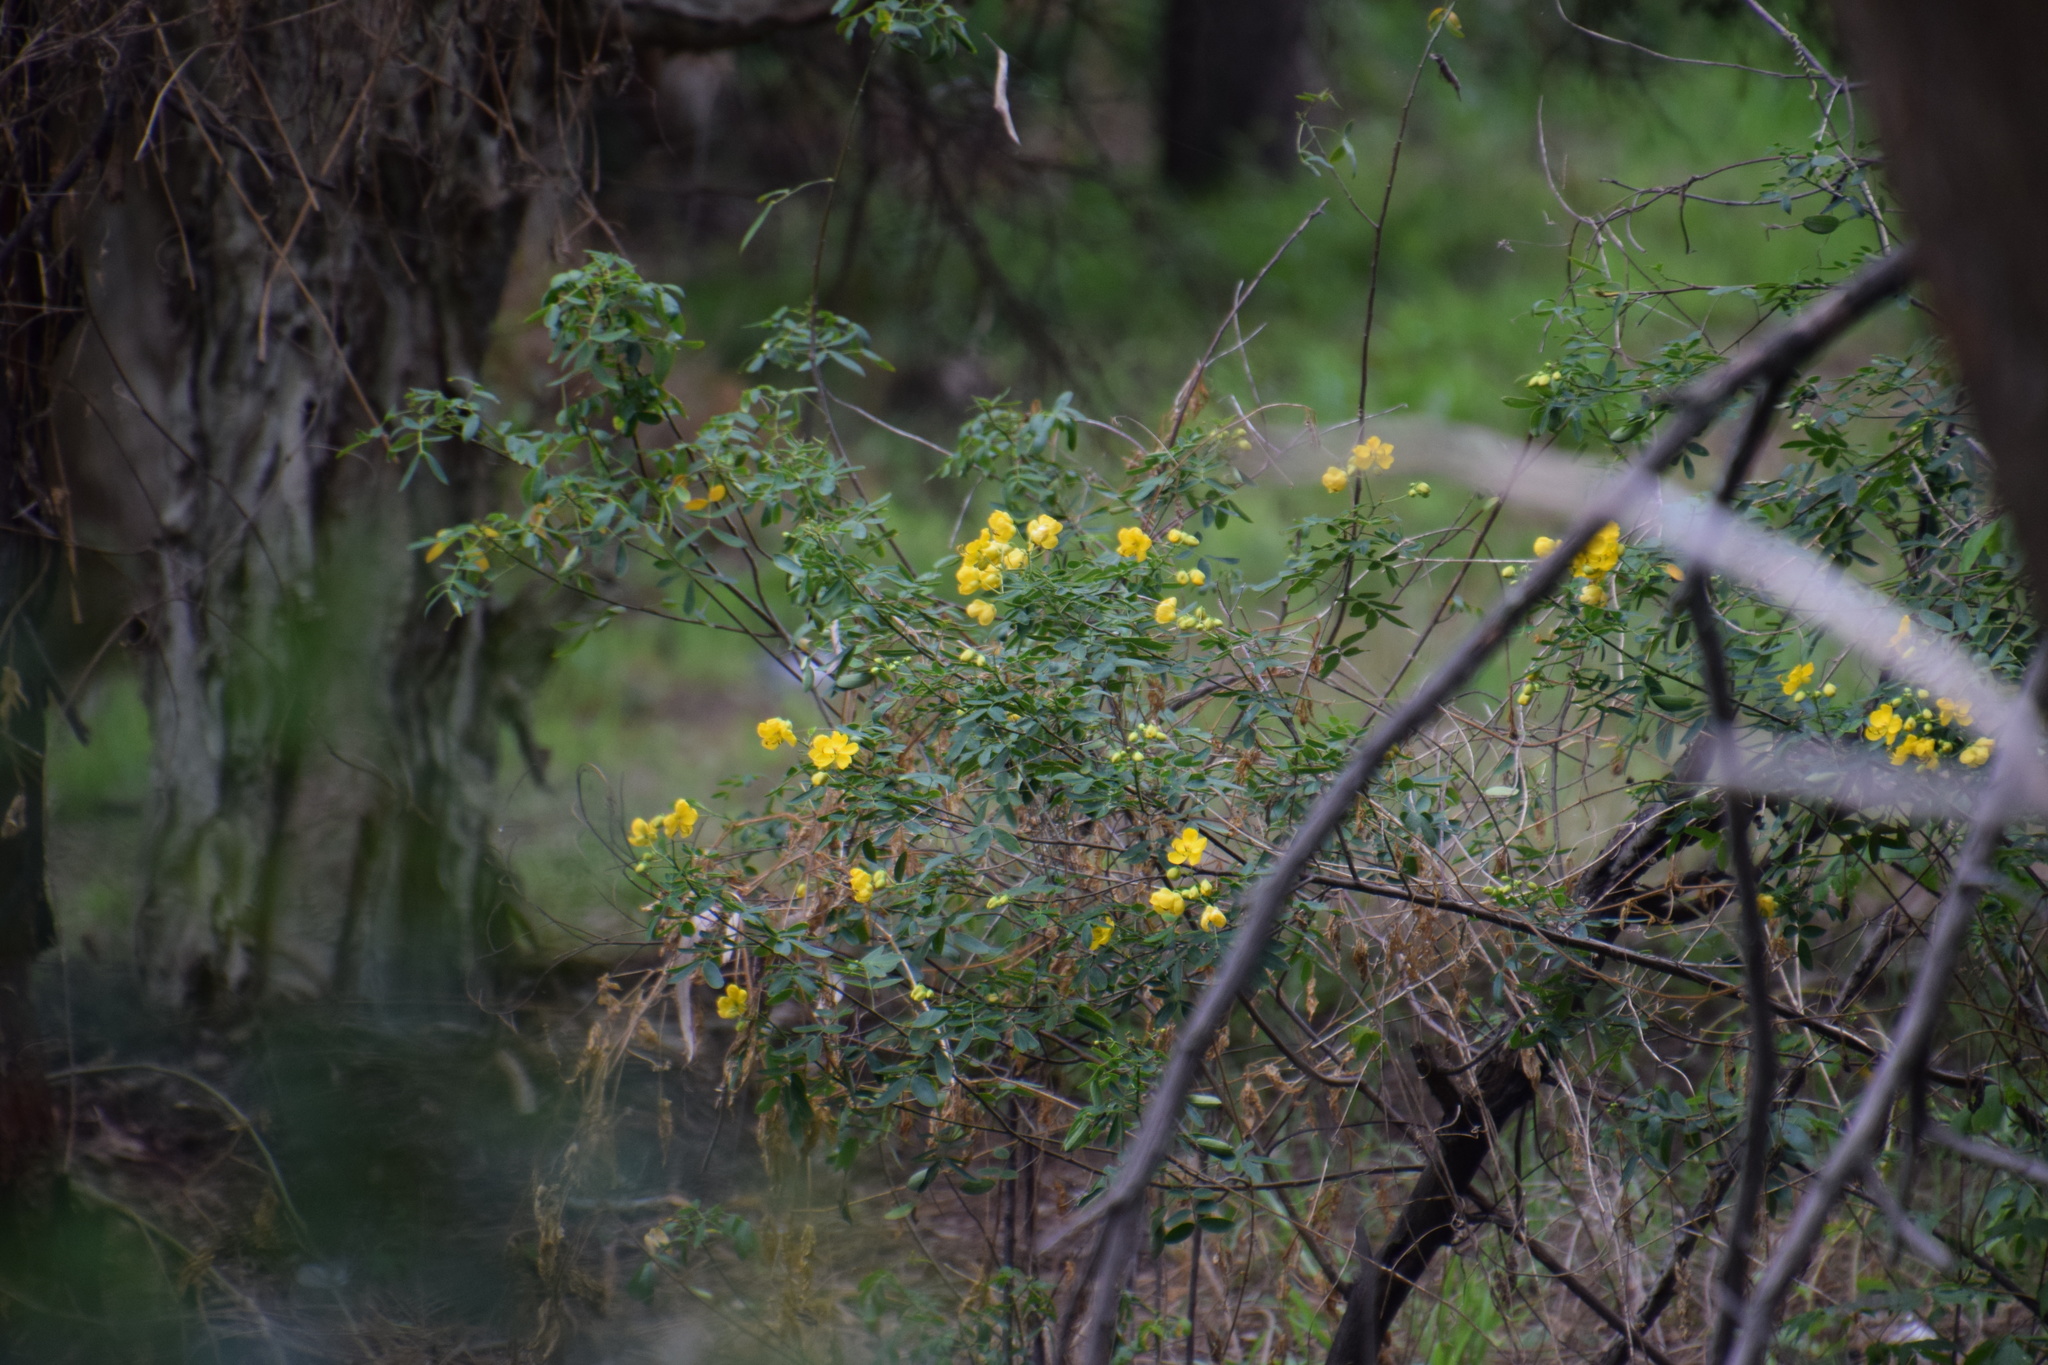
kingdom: Plantae
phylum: Tracheophyta
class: Magnoliopsida
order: Fabales
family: Fabaceae
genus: Senna
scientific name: Senna pendula
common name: Easter cassia
